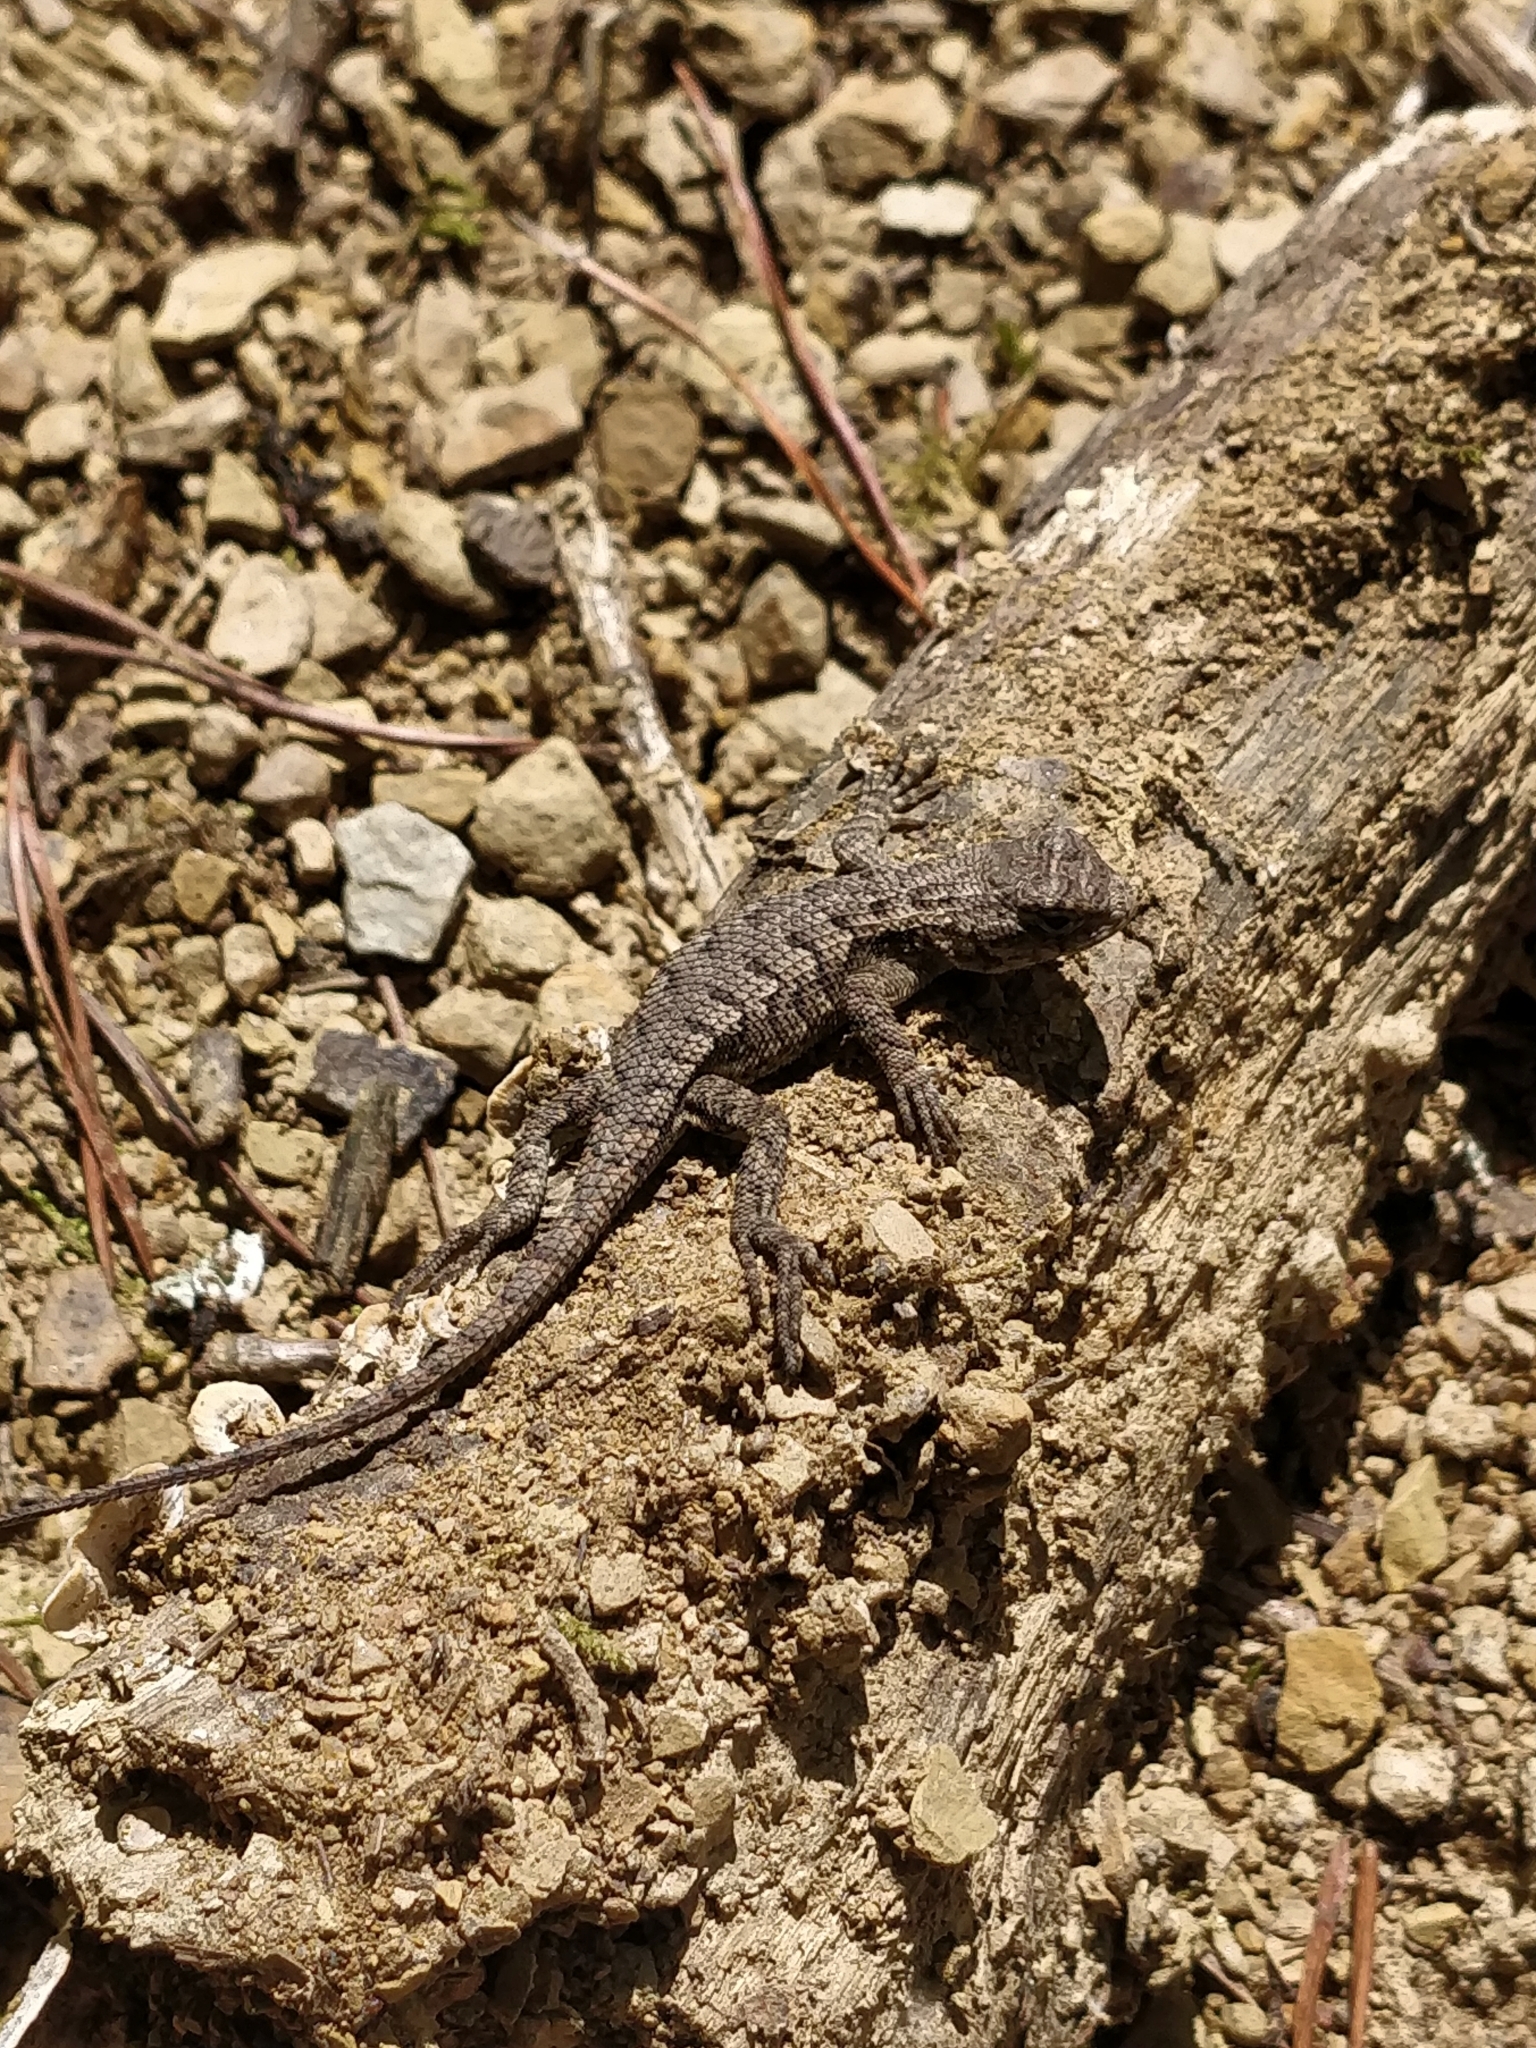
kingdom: Animalia
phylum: Chordata
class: Squamata
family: Phrynosomatidae
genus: Sceloporus
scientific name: Sceloporus undulatus
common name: Eastern fence lizard
